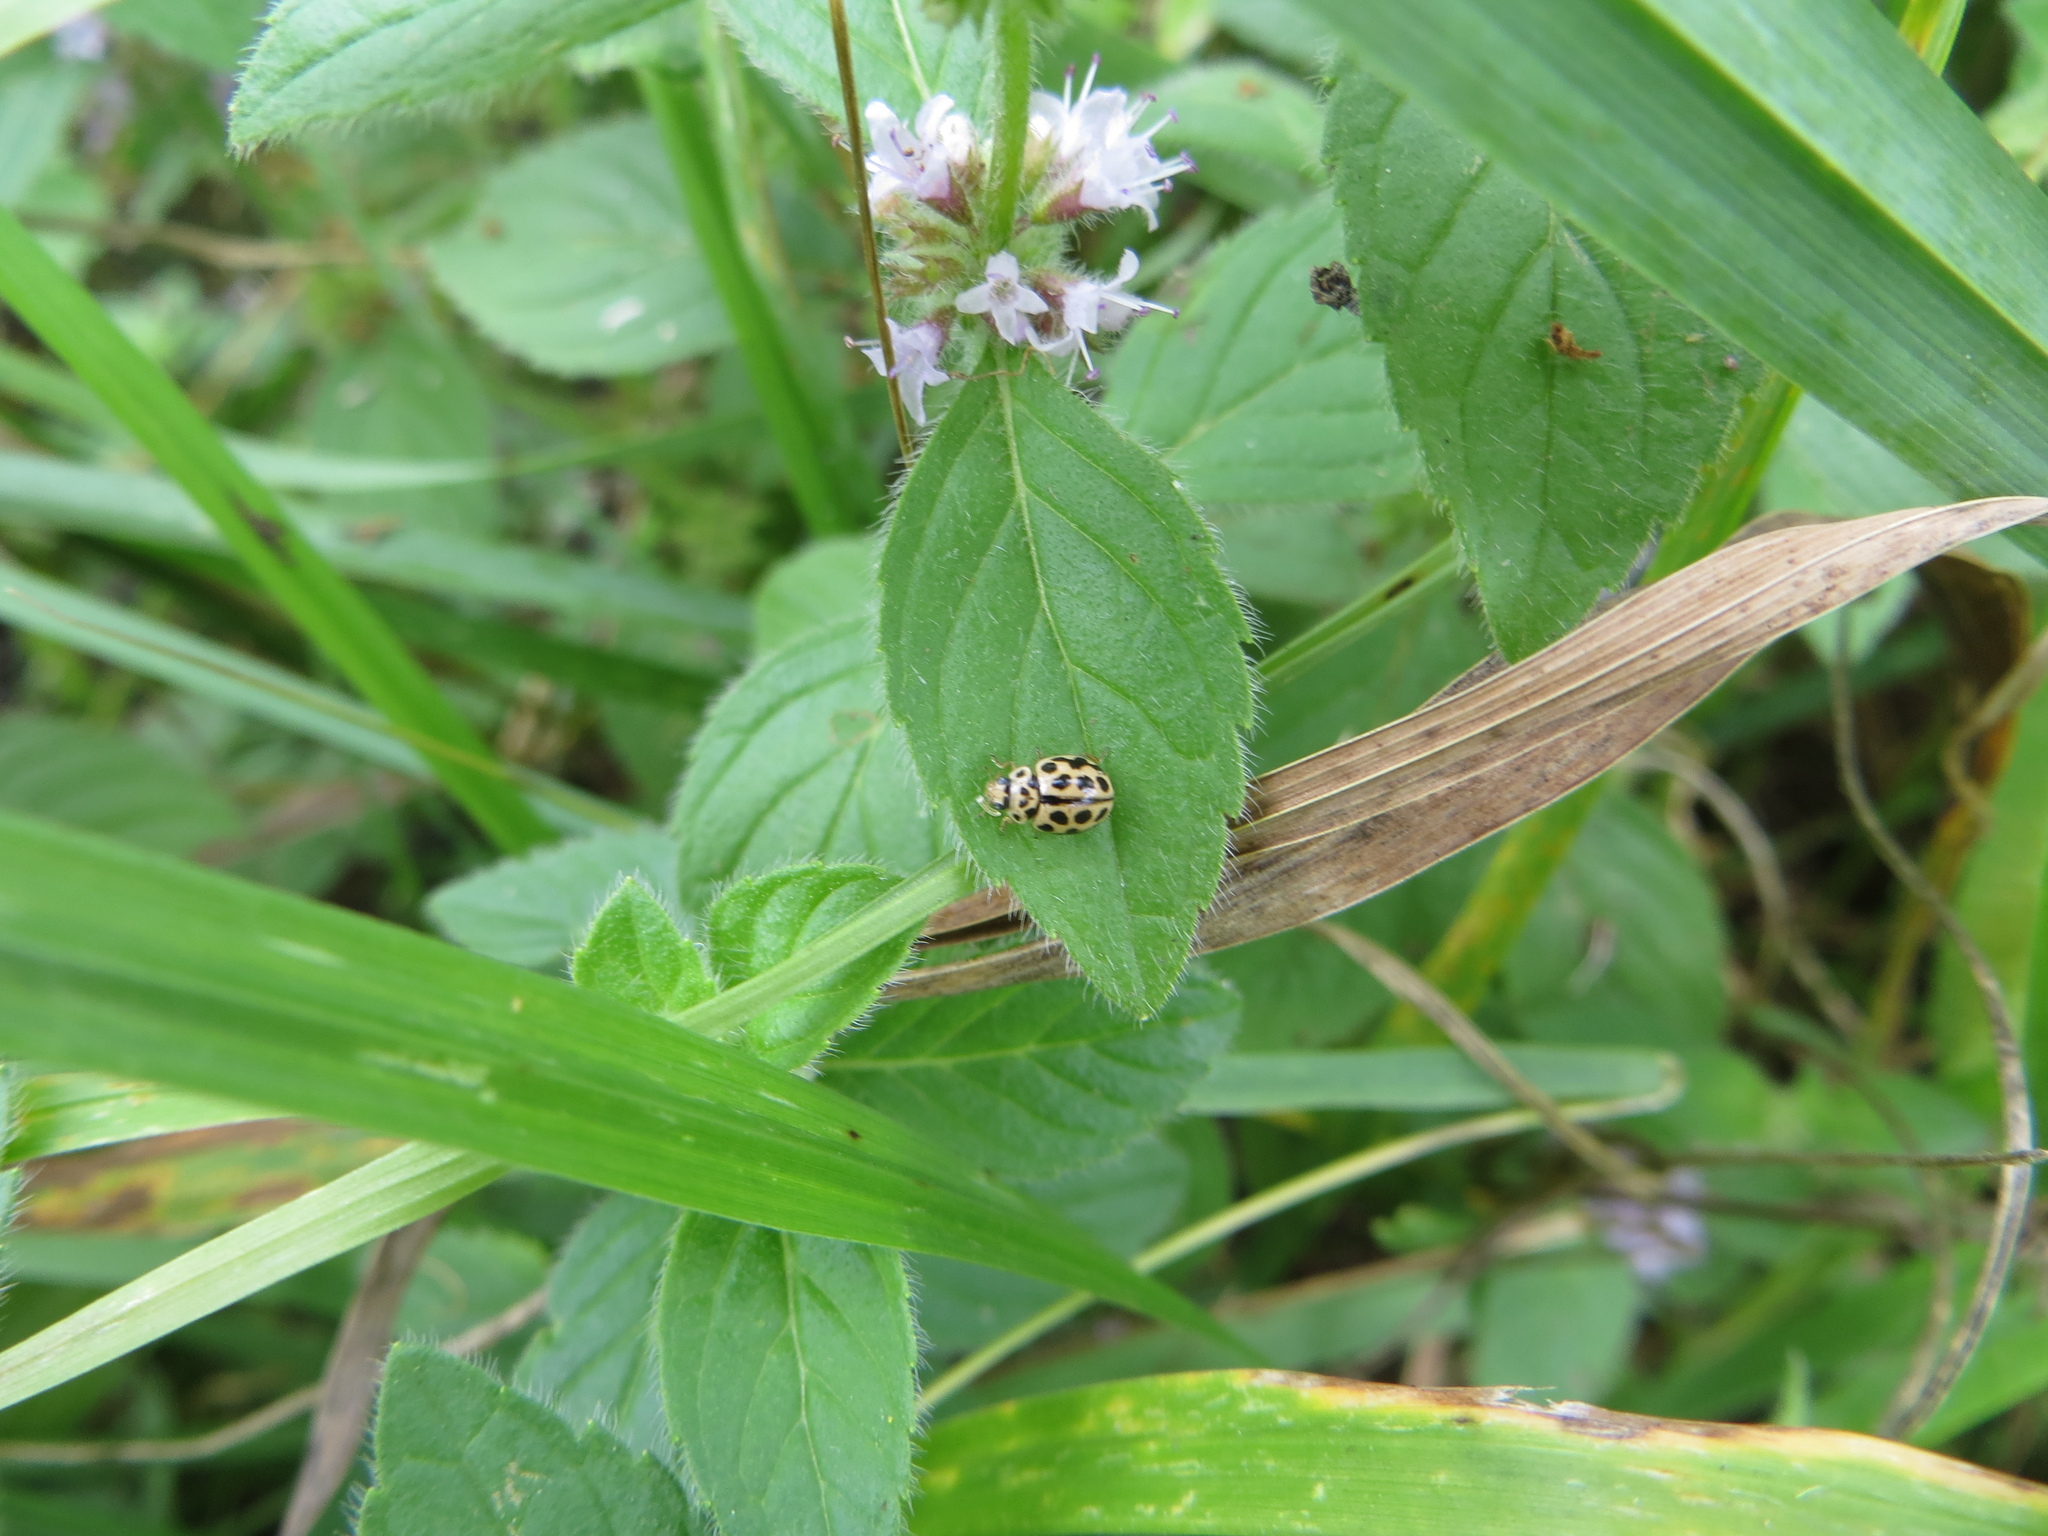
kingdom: Animalia
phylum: Arthropoda
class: Insecta
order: Coleoptera
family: Coccinellidae
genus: Tytthaspis
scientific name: Tytthaspis sedecimpunctata
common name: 16-spot ladybird
